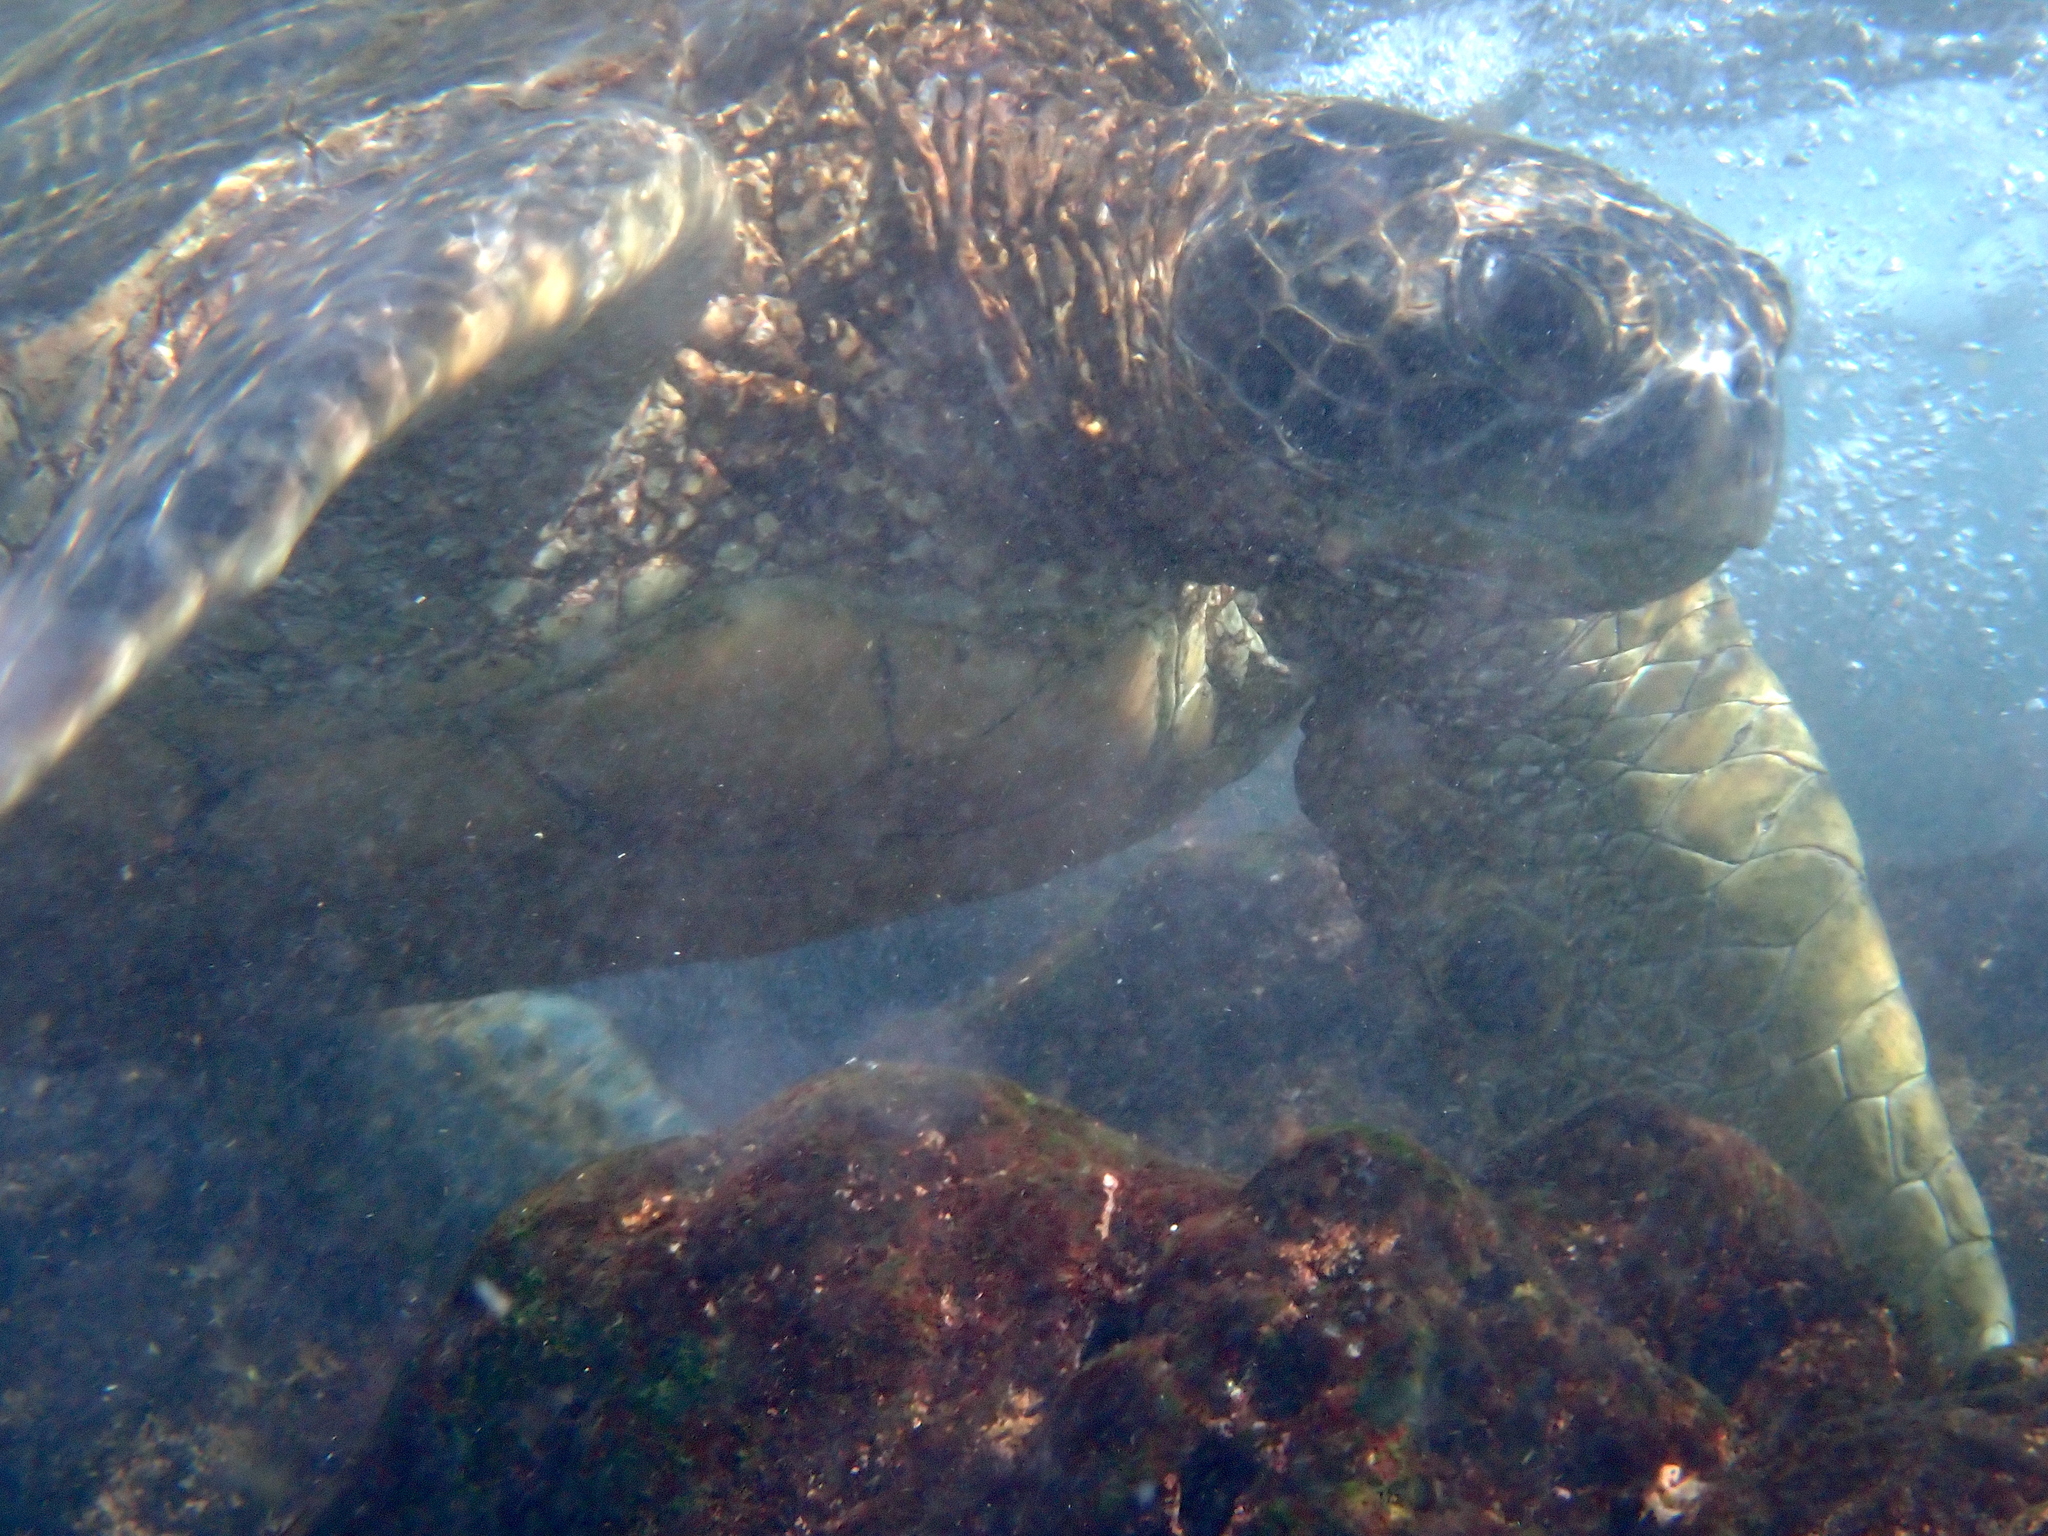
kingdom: Animalia
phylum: Chordata
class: Testudines
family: Cheloniidae
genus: Chelonia
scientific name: Chelonia mydas
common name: Green turtle
